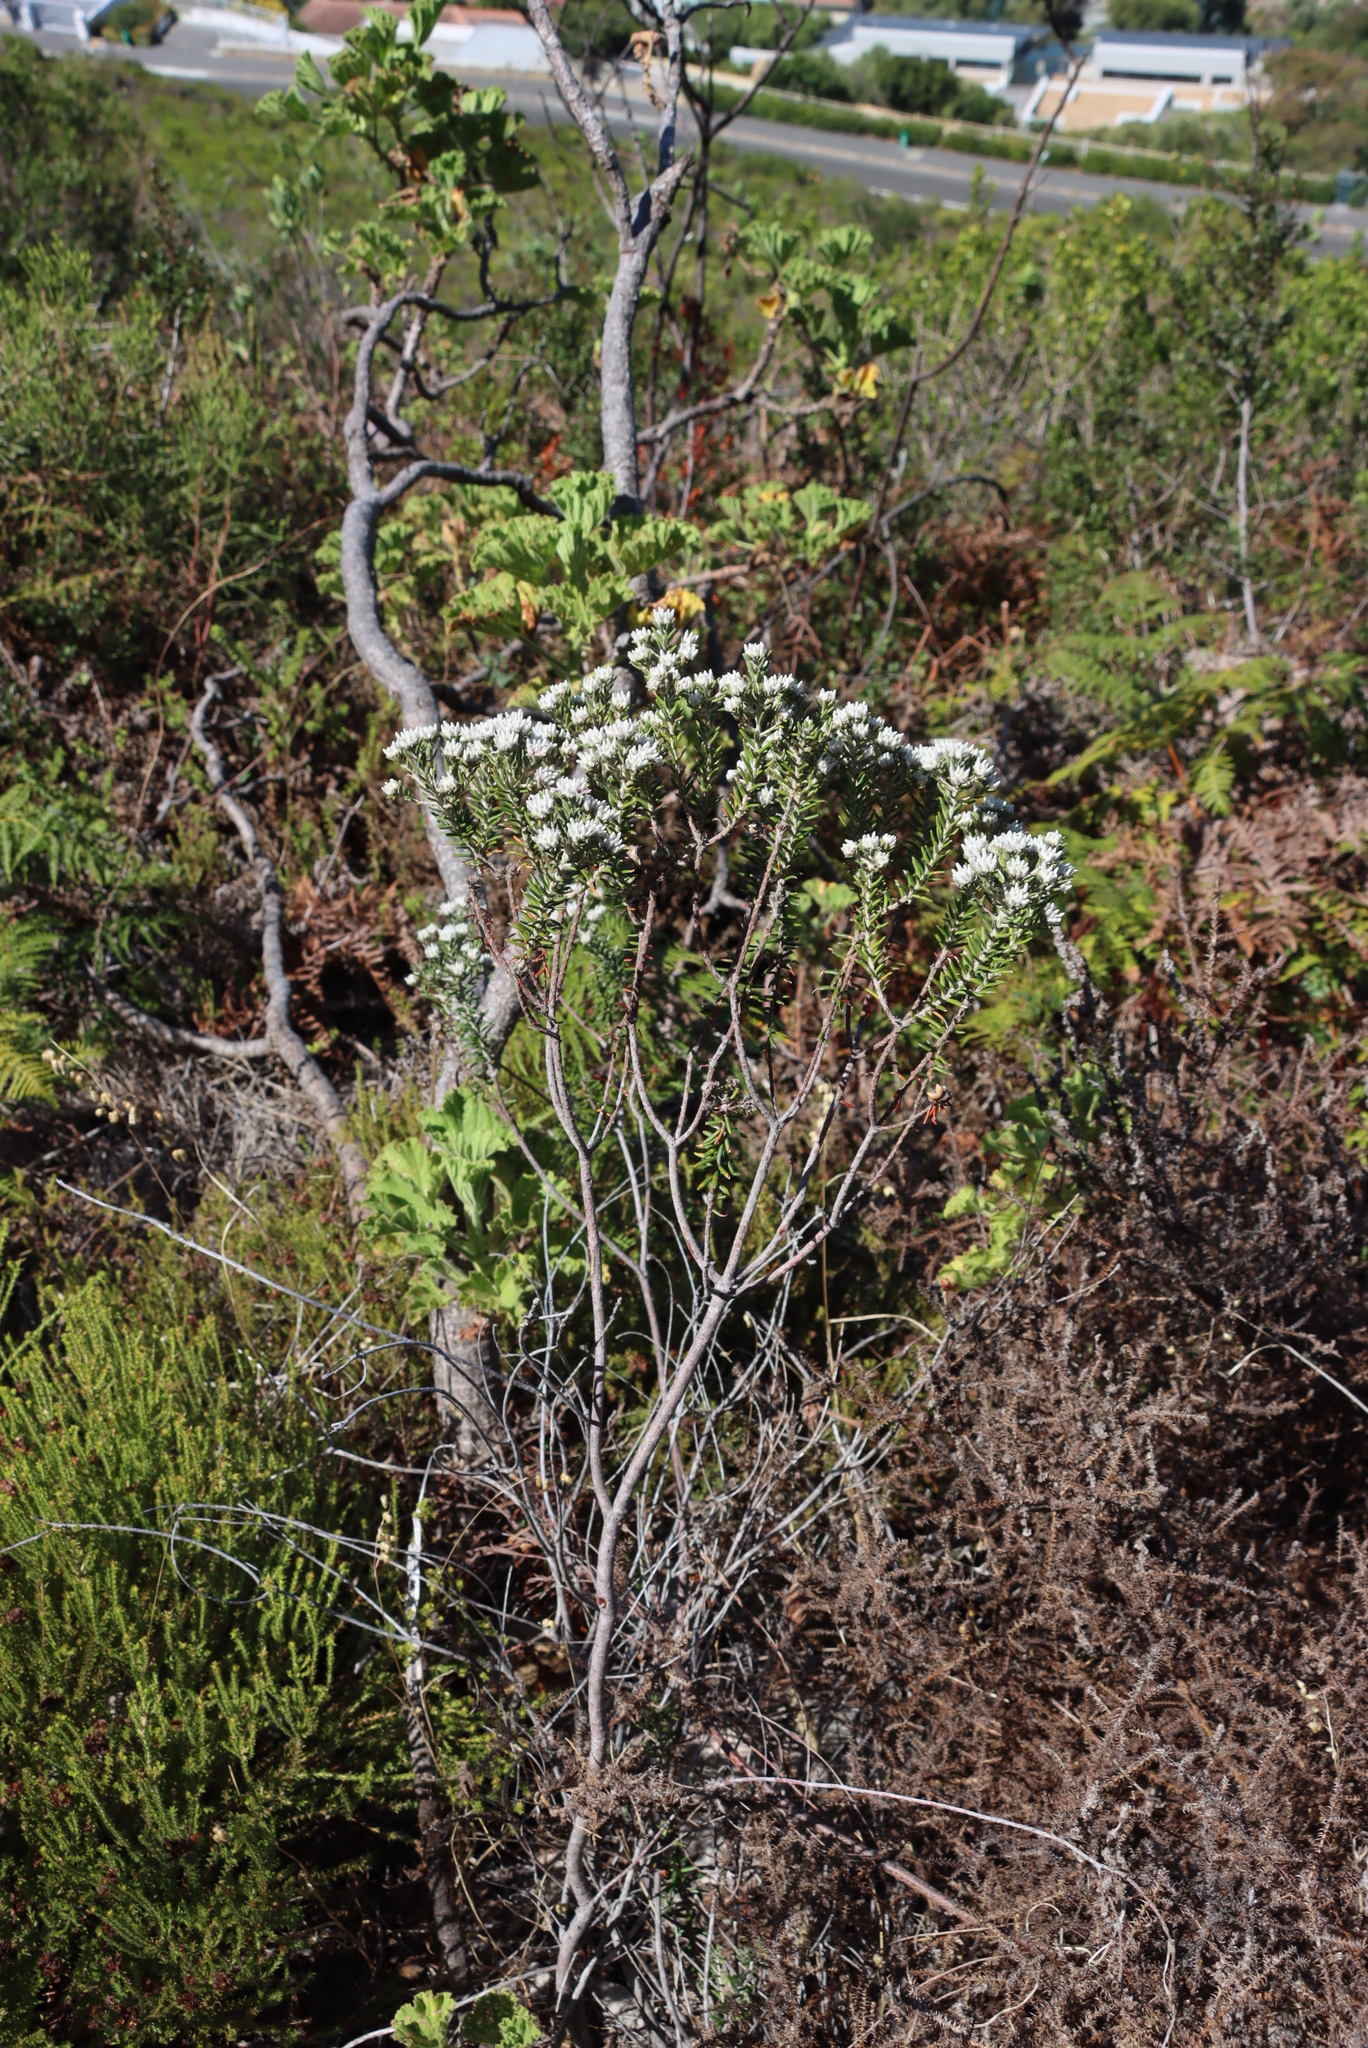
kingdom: Plantae
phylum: Tracheophyta
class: Magnoliopsida
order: Rosales
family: Rhamnaceae
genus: Trichocephalus
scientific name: Trichocephalus stipularis
